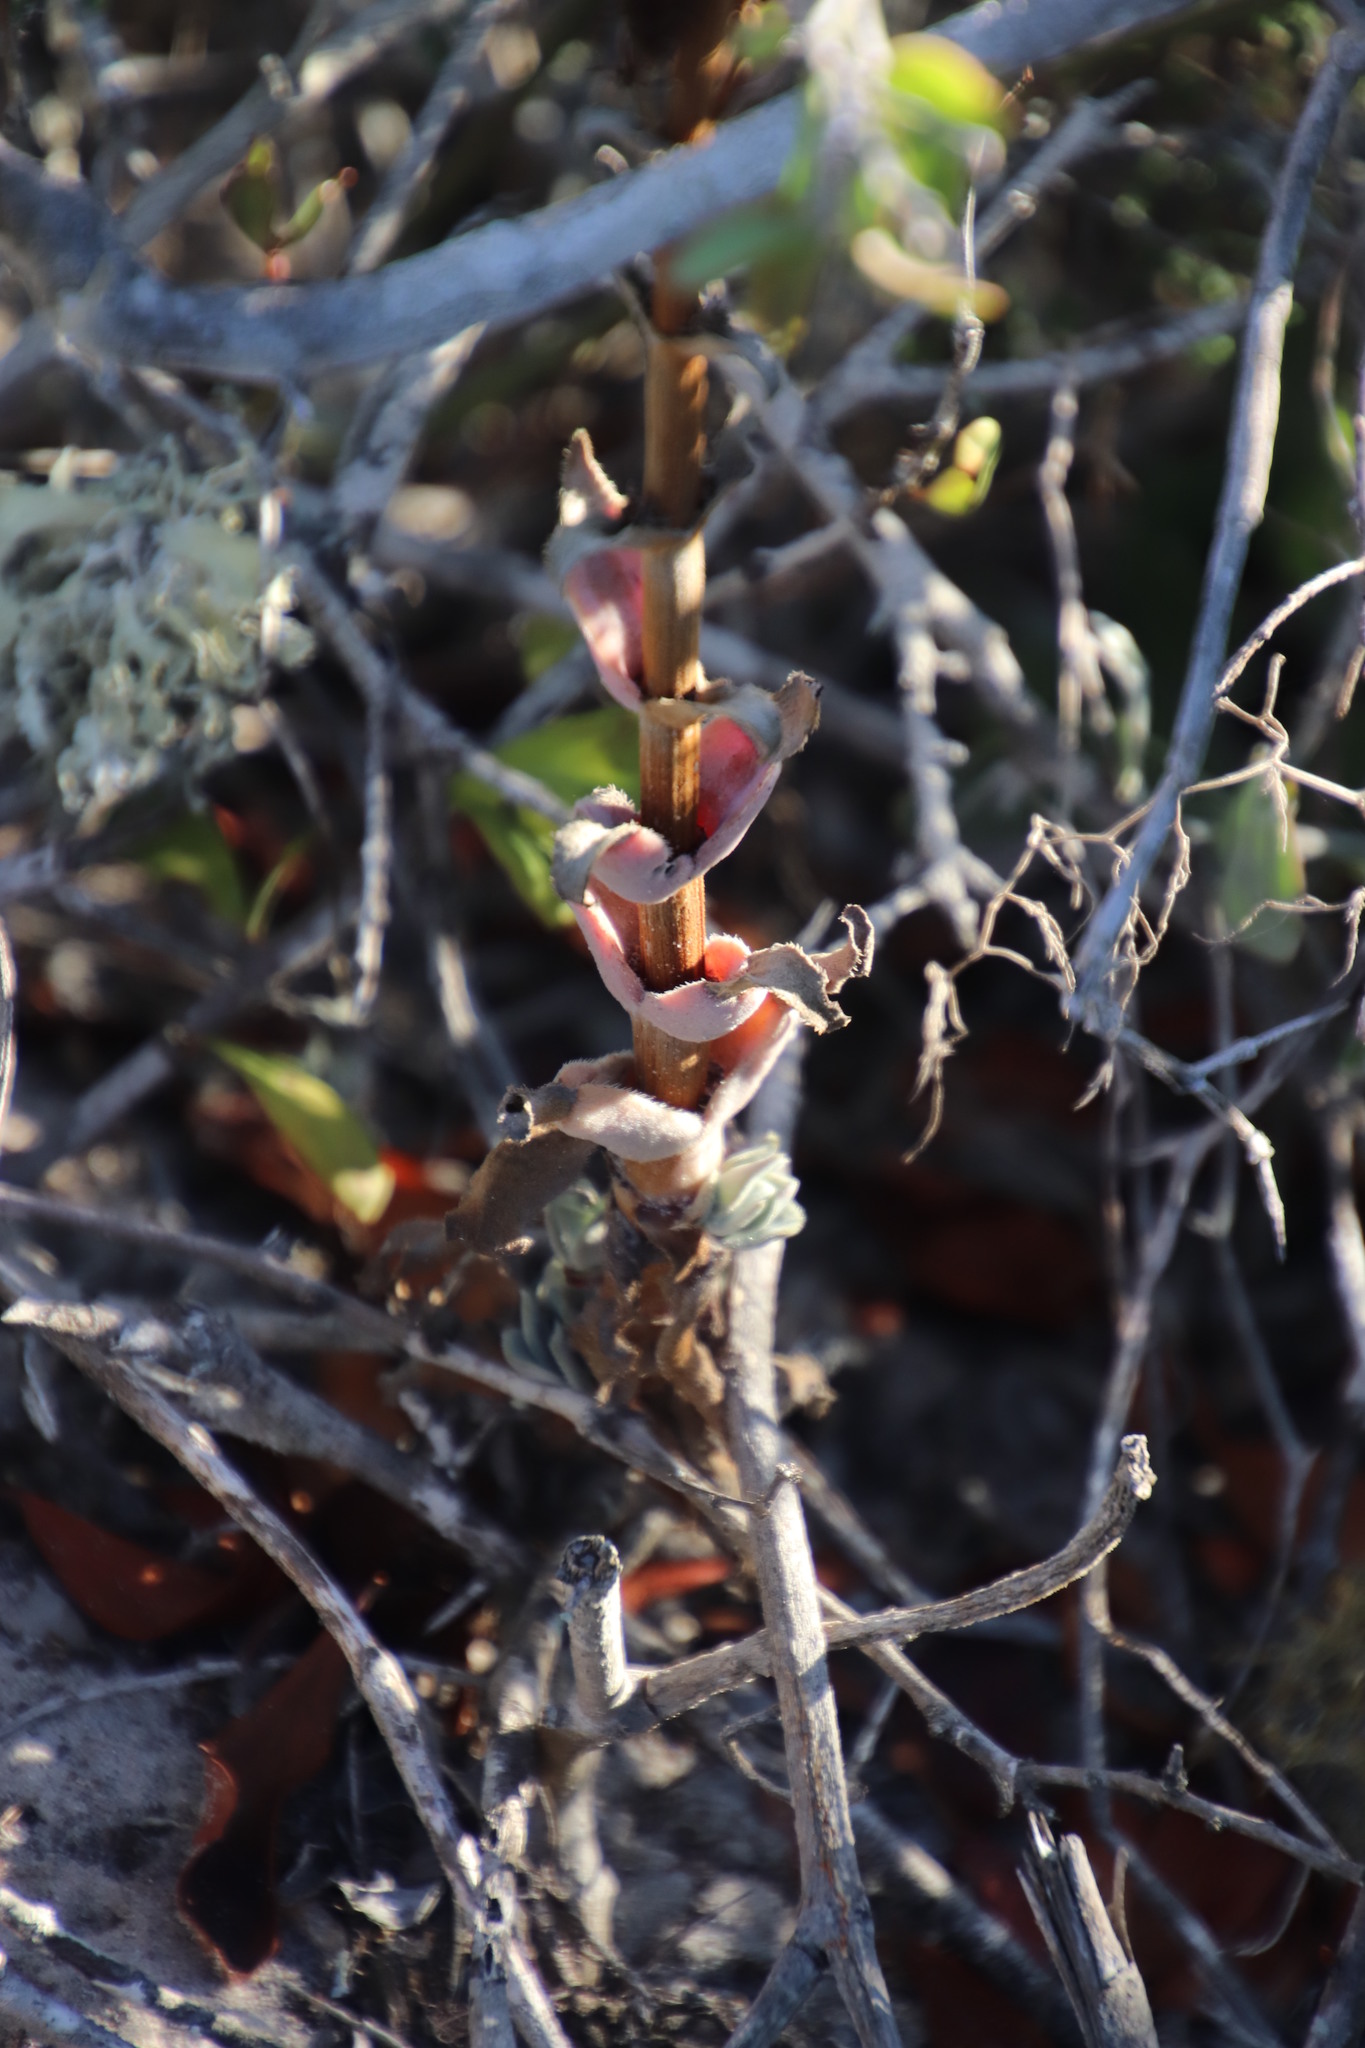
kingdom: Plantae
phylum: Tracheophyta
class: Magnoliopsida
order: Saxifragales
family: Crassulaceae
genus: Crassula
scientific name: Crassula nudicaulis
